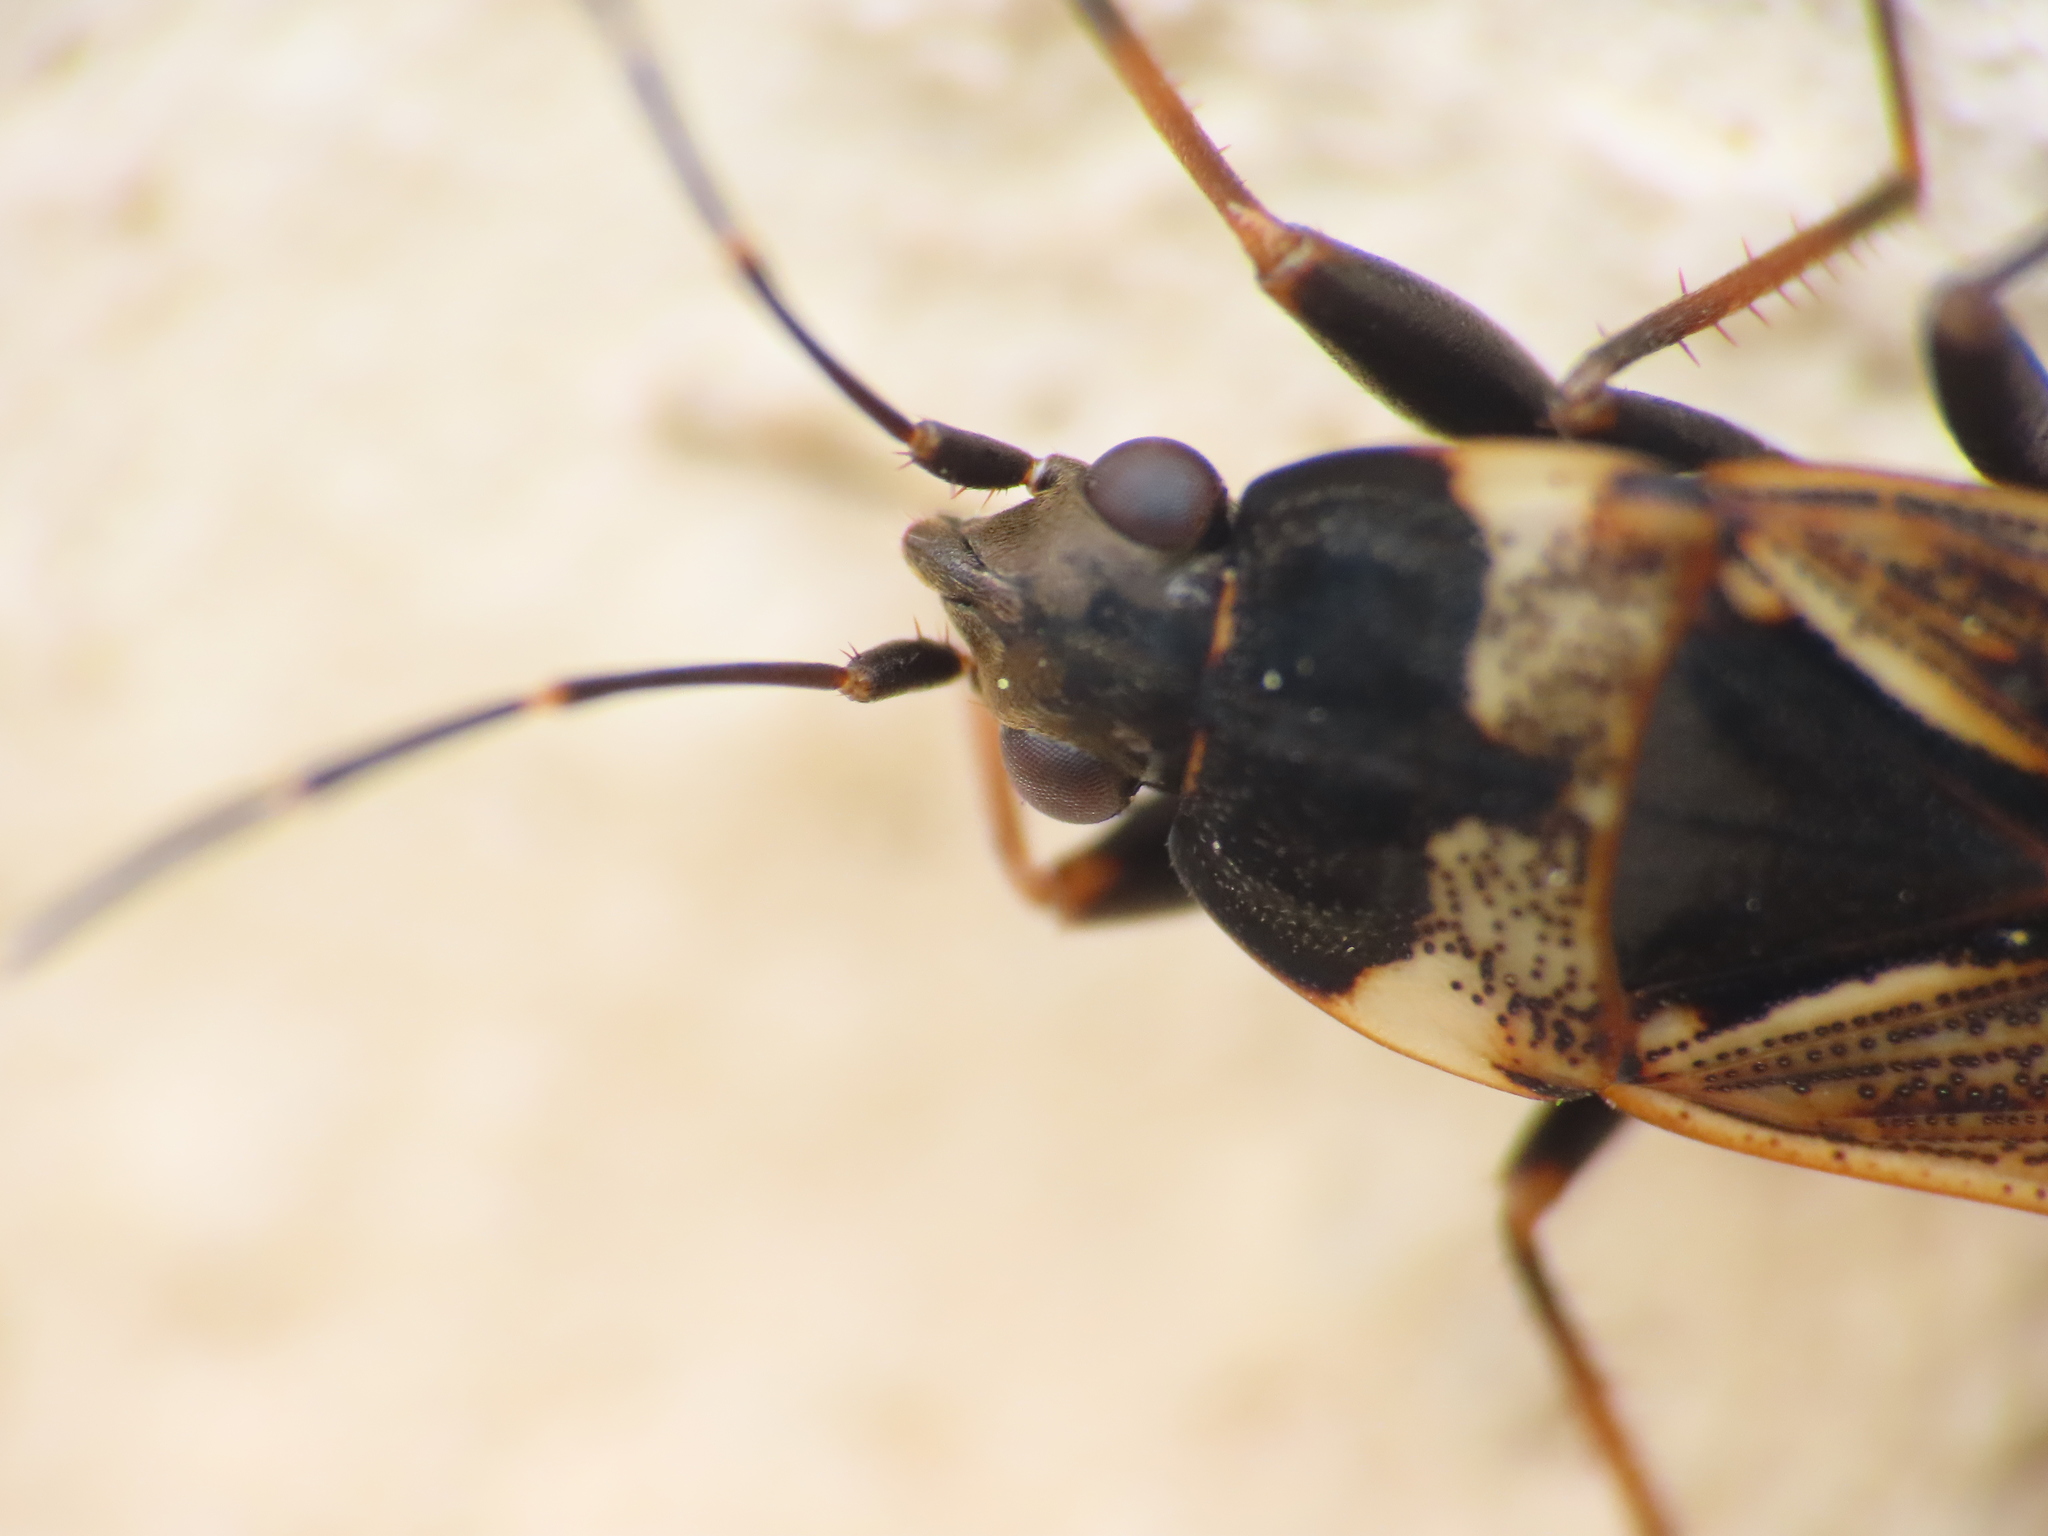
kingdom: Animalia
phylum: Arthropoda
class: Insecta
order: Hemiptera
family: Rhyparochromidae
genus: Rhyparochromus
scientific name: Rhyparochromus vulgaris
